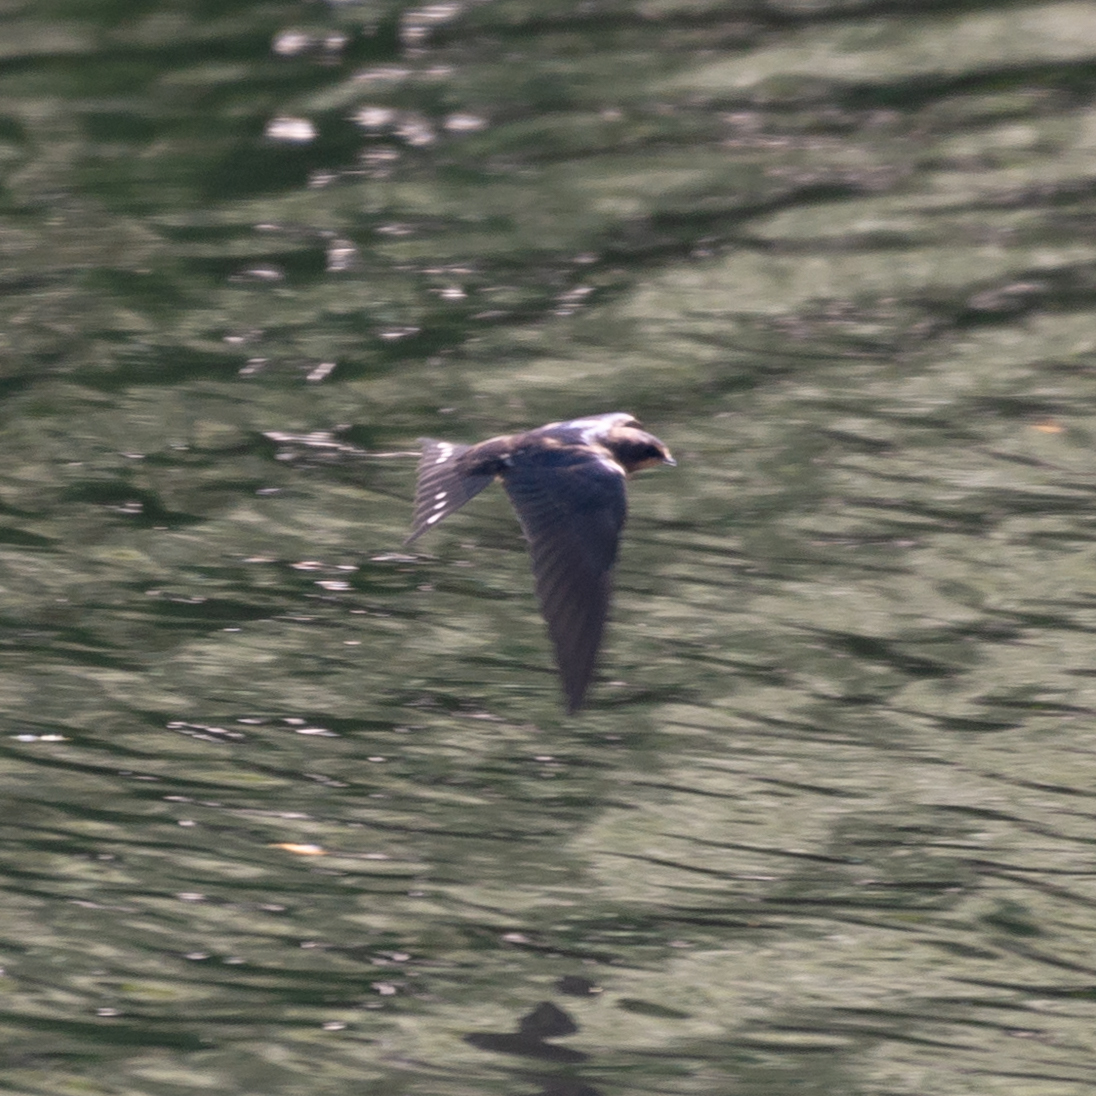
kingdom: Animalia
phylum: Chordata
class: Aves
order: Passeriformes
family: Hirundinidae
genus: Hirundo
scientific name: Hirundo rustica
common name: Barn swallow
